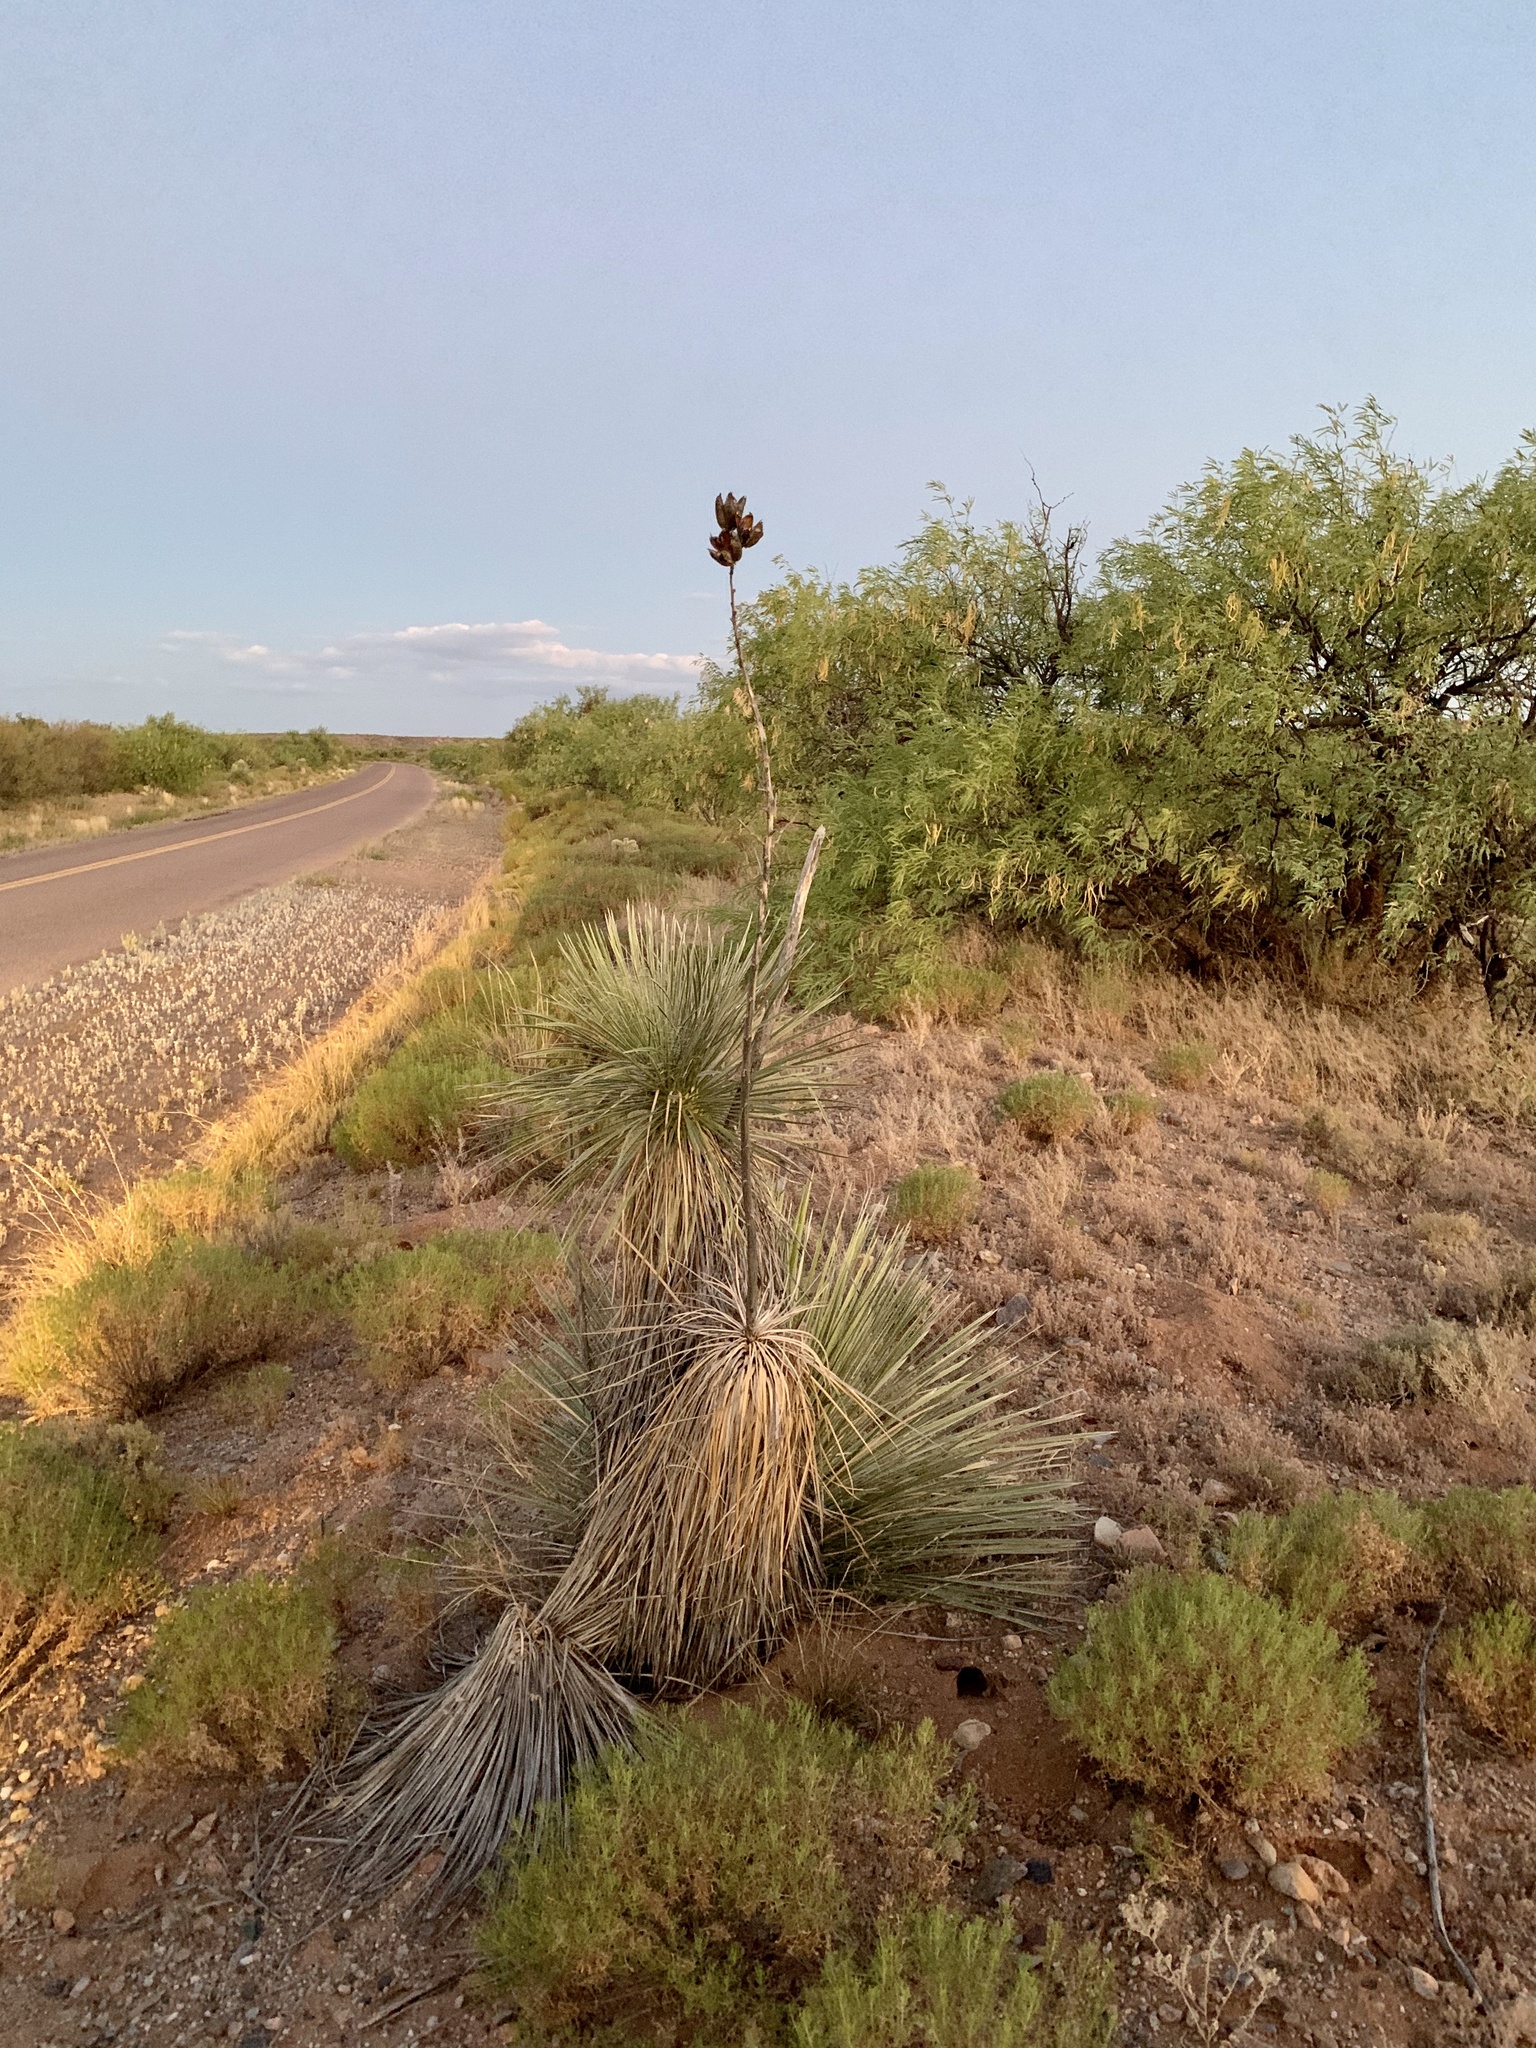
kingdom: Plantae
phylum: Tracheophyta
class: Liliopsida
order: Asparagales
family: Asparagaceae
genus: Yucca
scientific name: Yucca elata
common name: Palmella
